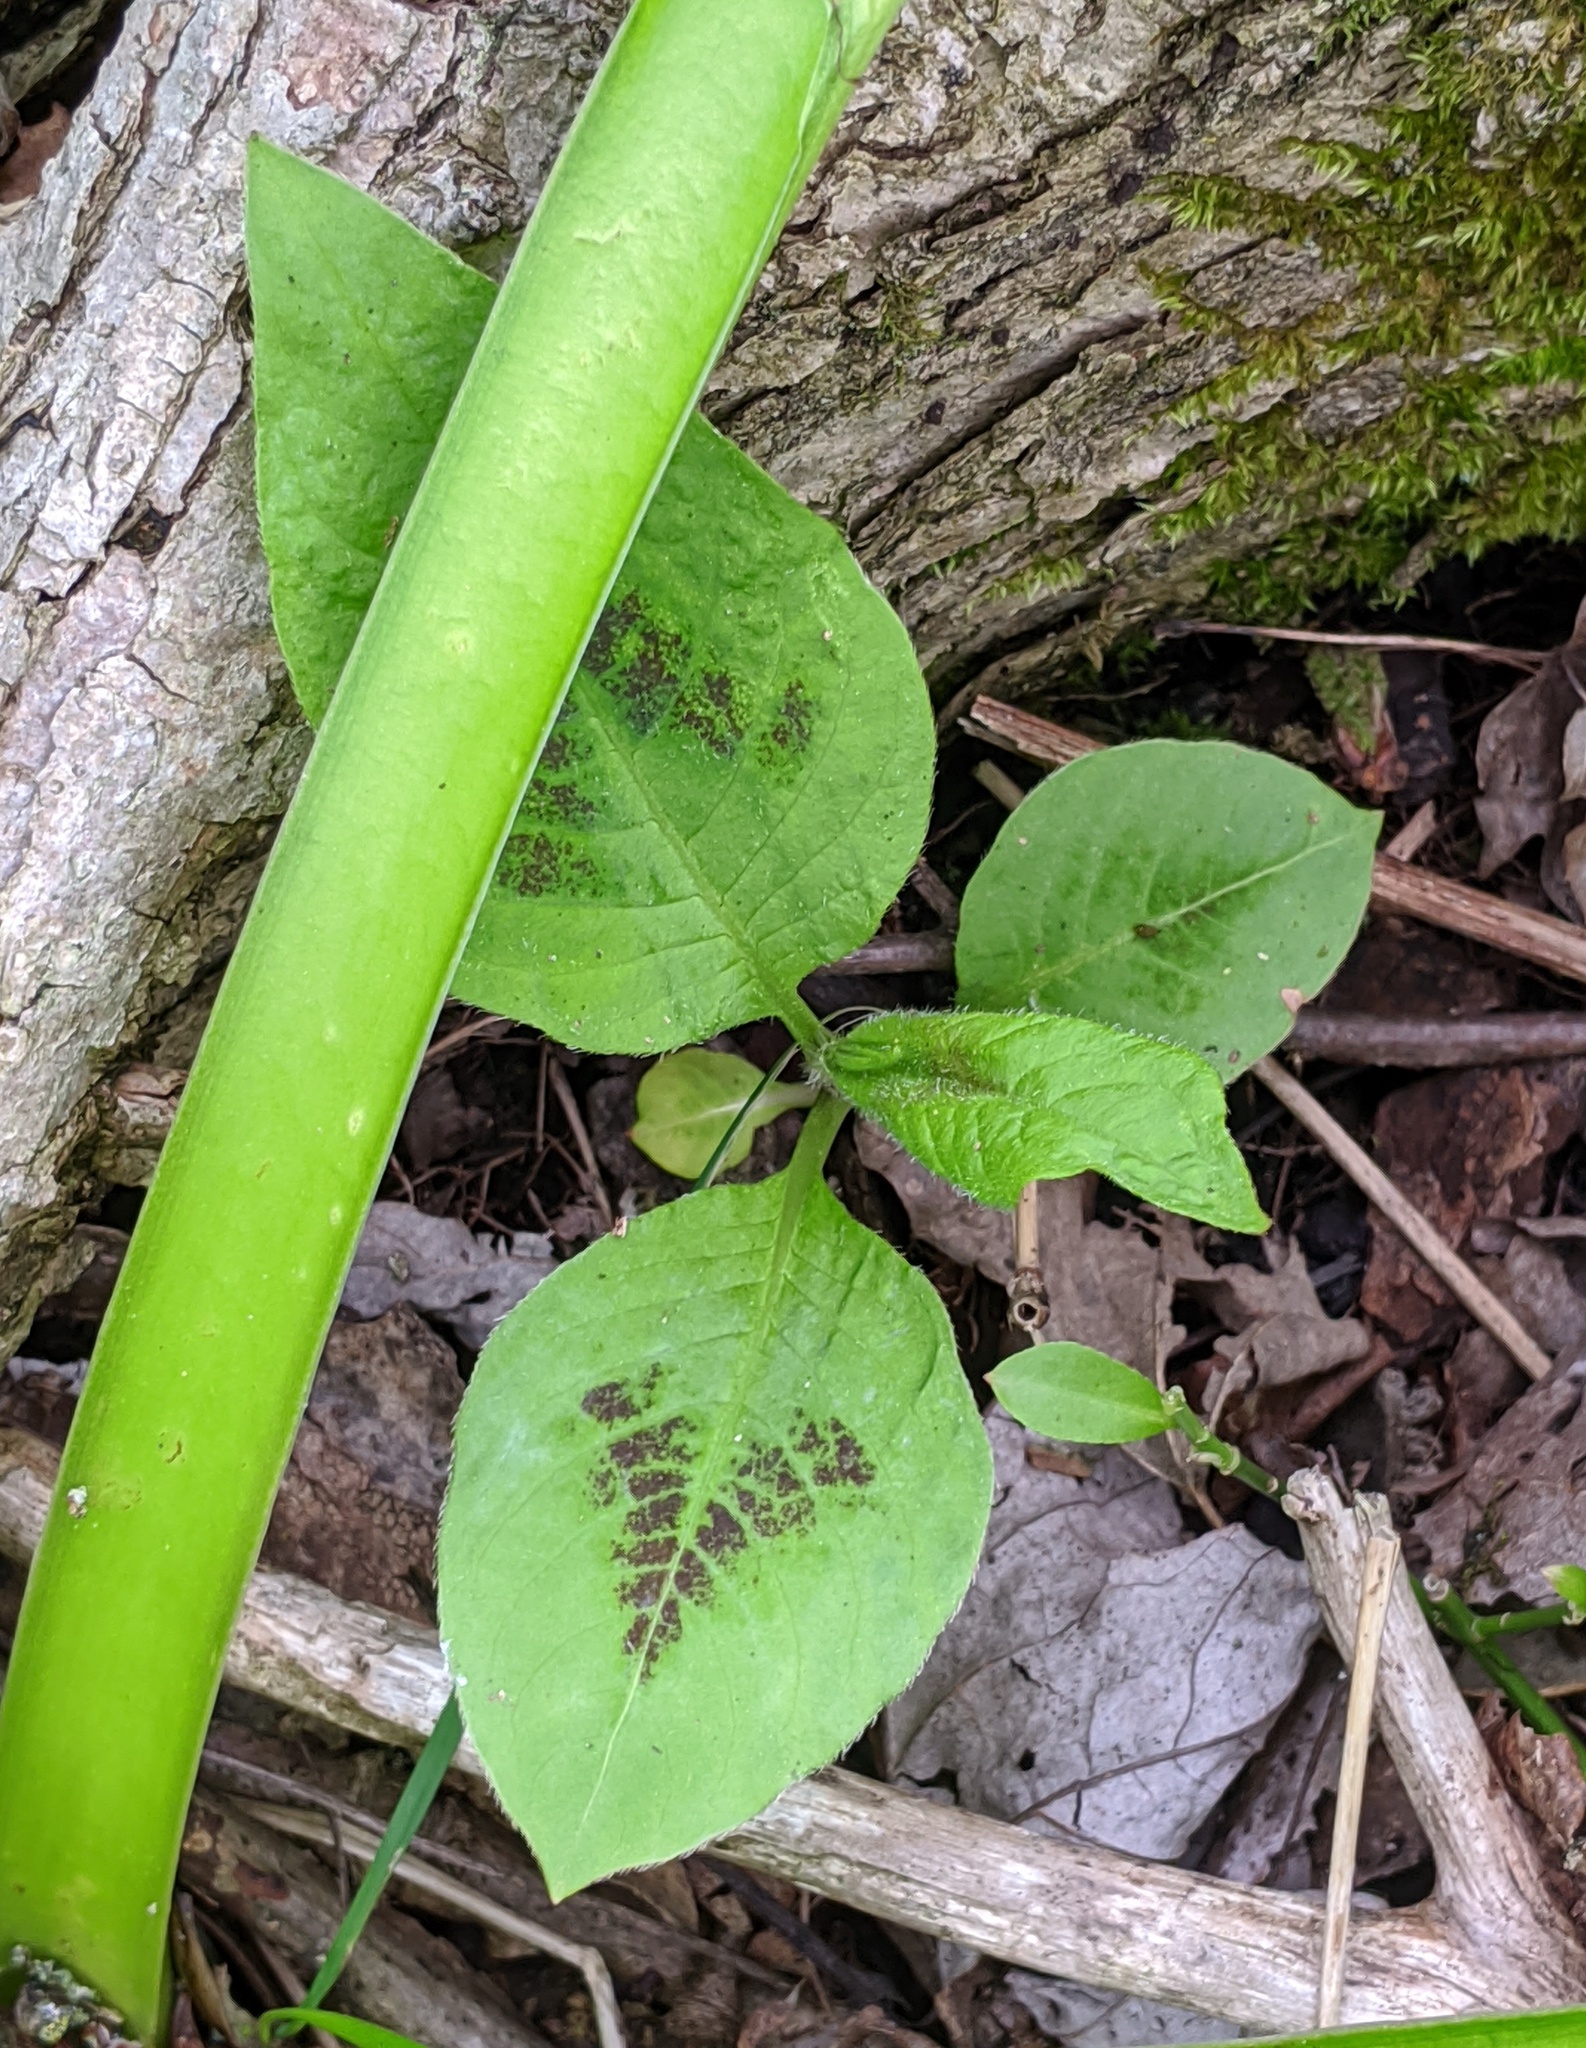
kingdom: Plantae
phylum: Tracheophyta
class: Magnoliopsida
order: Caryophyllales
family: Polygonaceae
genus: Persicaria
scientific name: Persicaria virginiana
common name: Jumpseed
